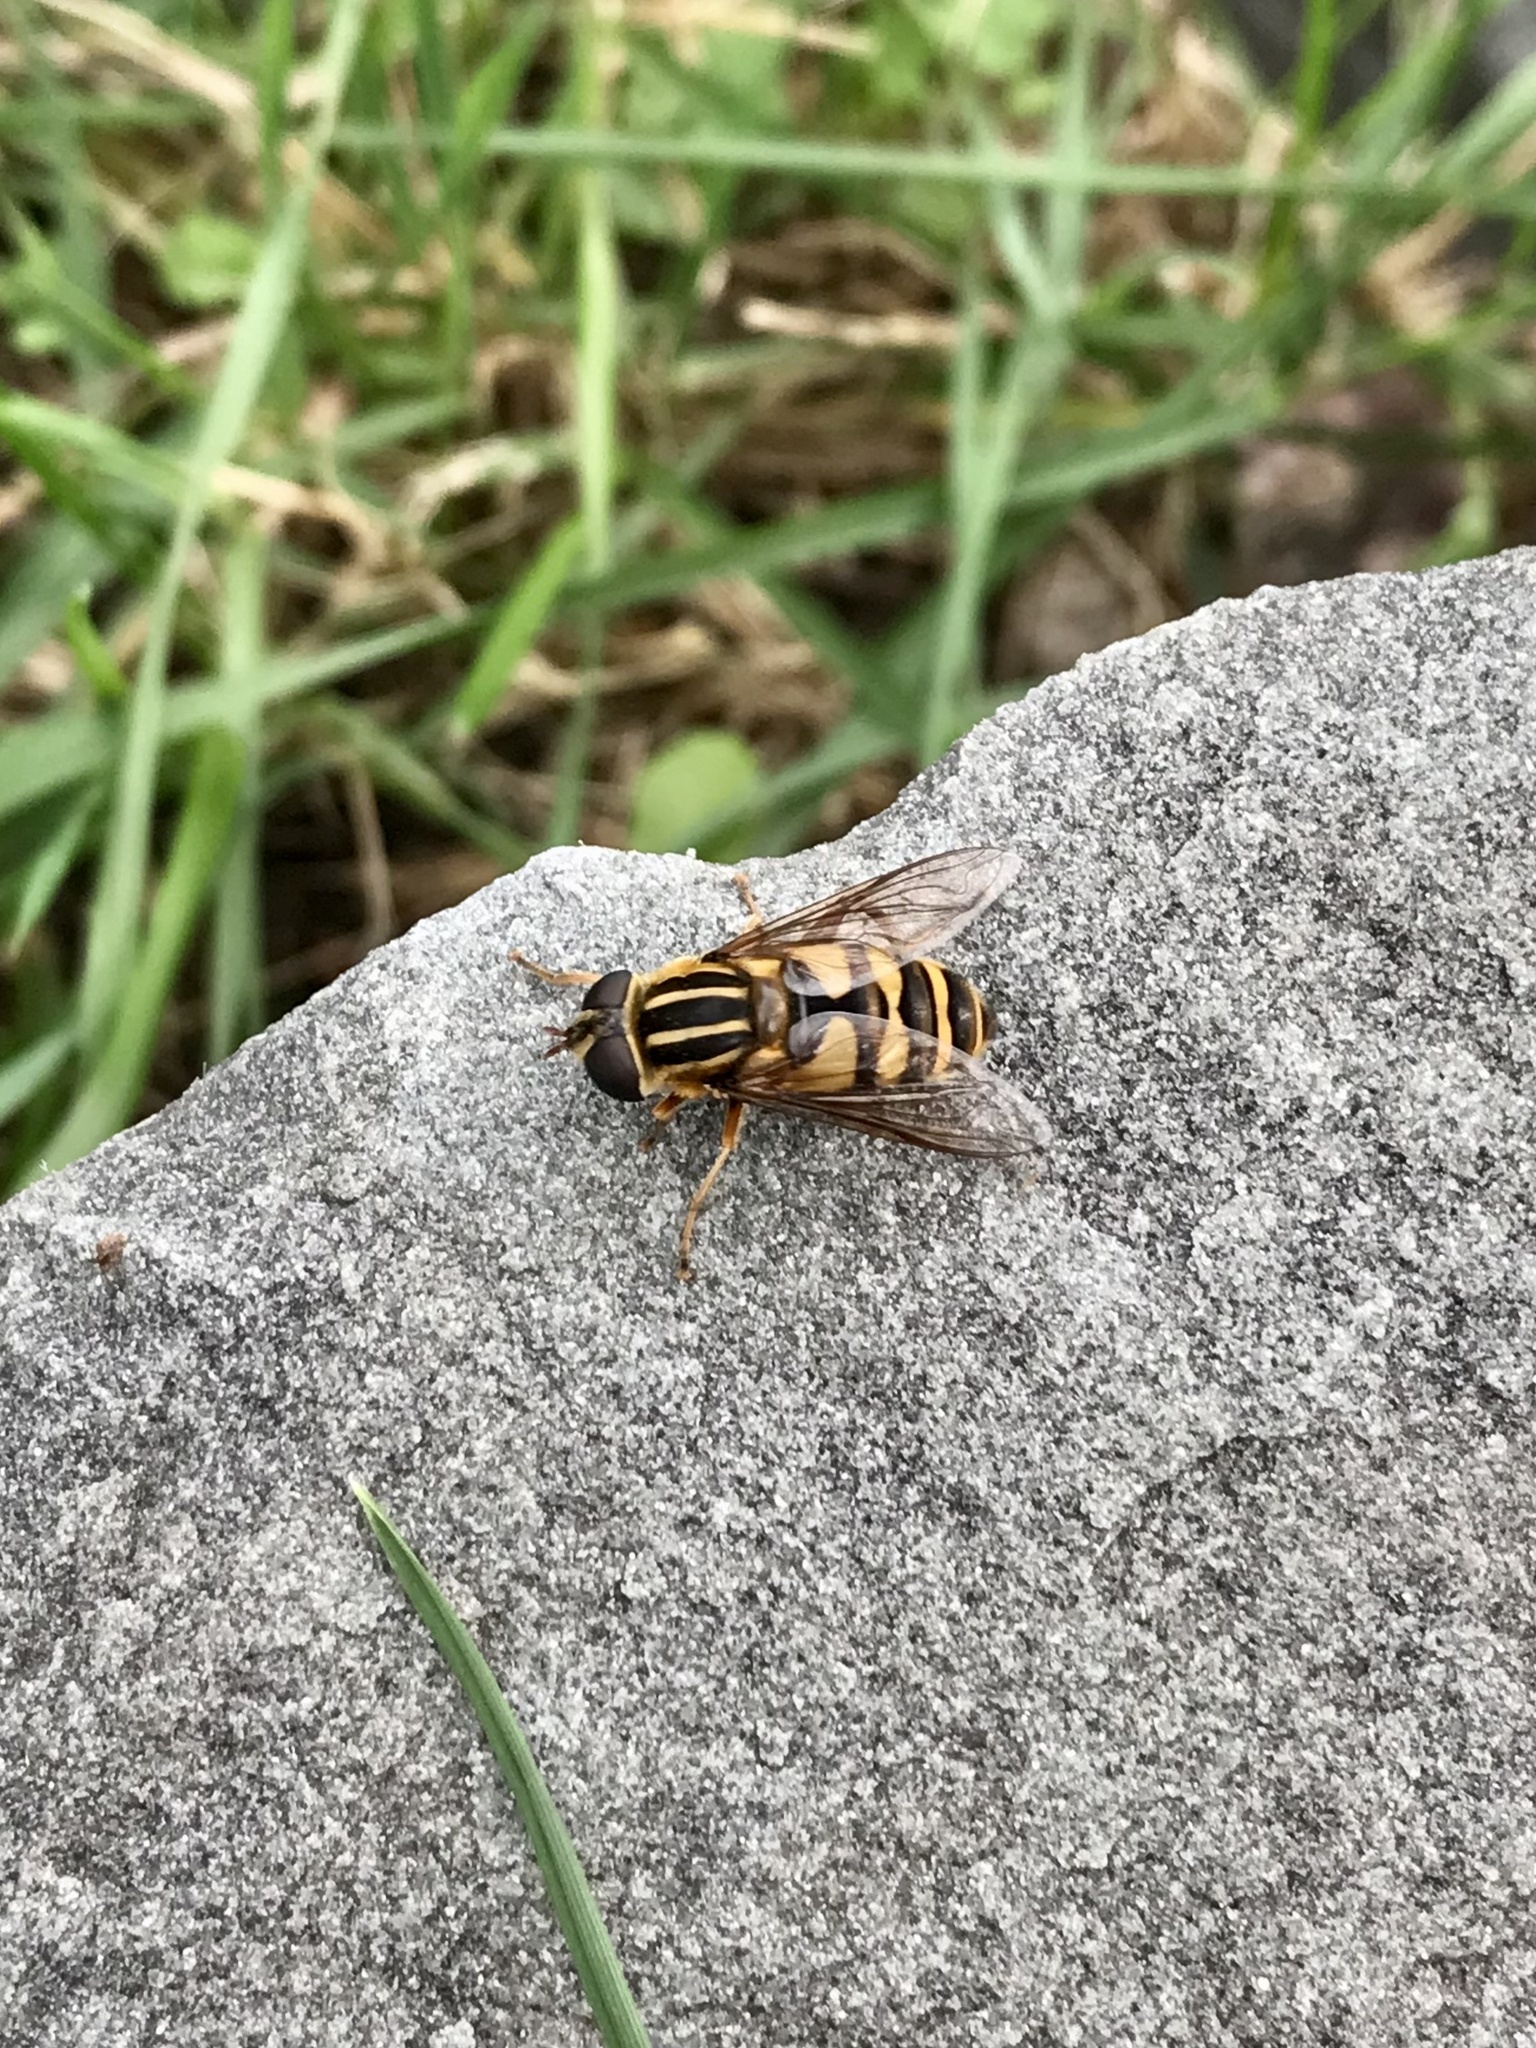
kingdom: Animalia
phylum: Arthropoda
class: Insecta
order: Diptera
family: Syrphidae
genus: Helophilus
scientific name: Helophilus fasciatus
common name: Narrow-headed marsh fly
